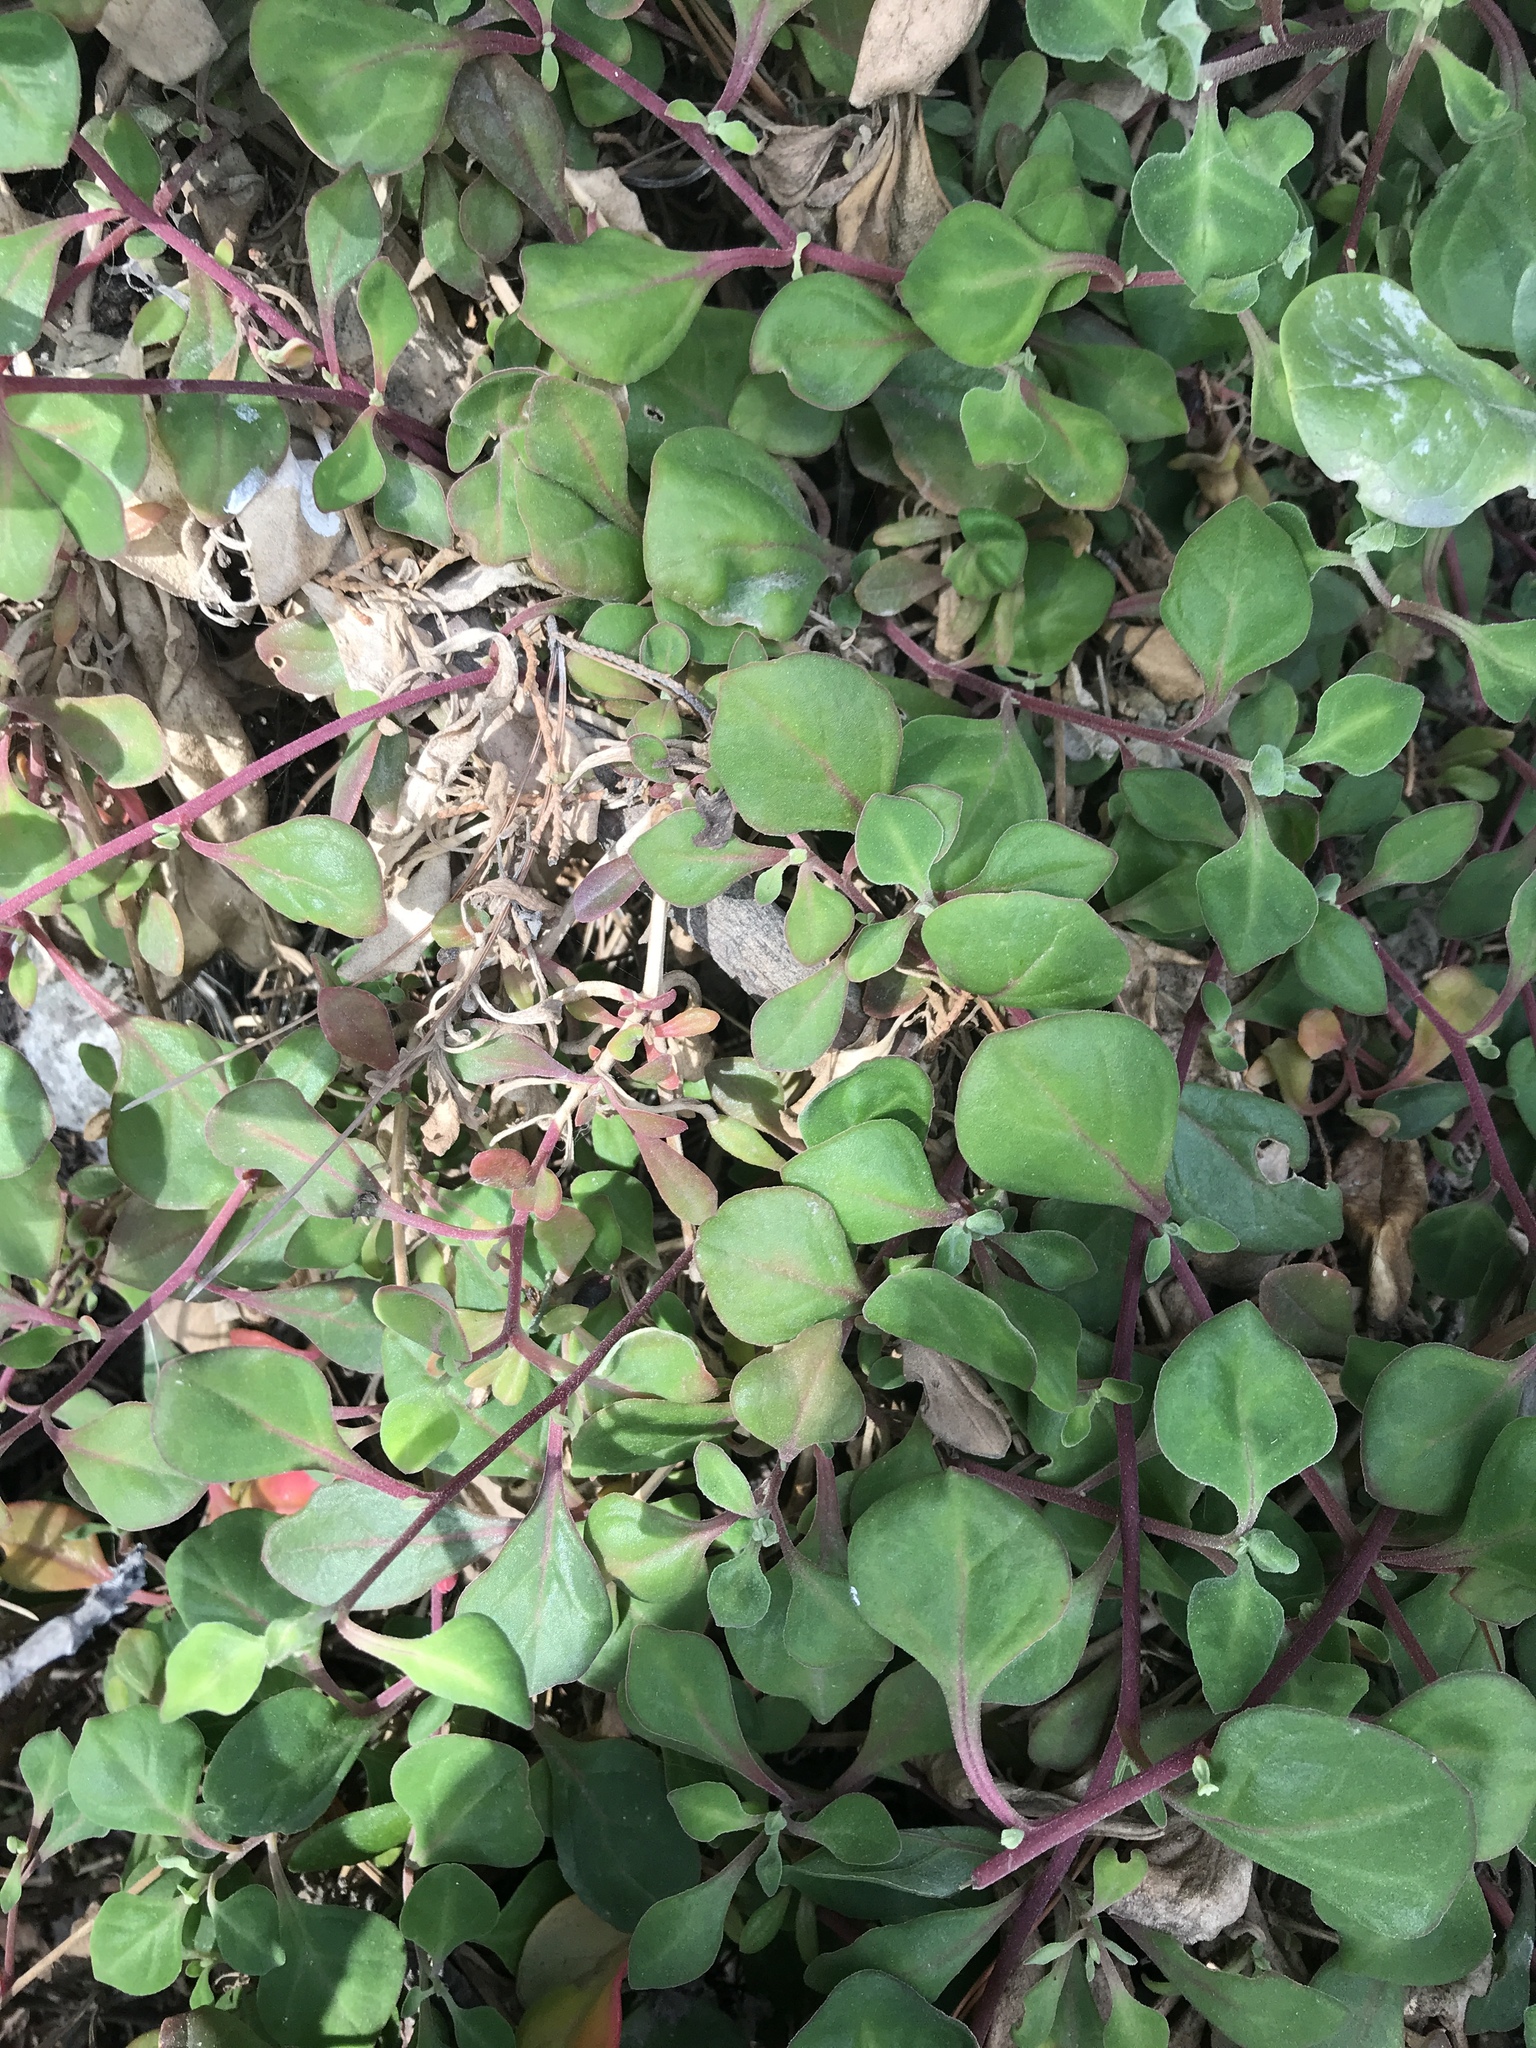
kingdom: Plantae
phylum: Tracheophyta
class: Magnoliopsida
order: Caryophyllales
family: Aizoaceae
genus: Tetragonia
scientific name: Tetragonia implexicoma
